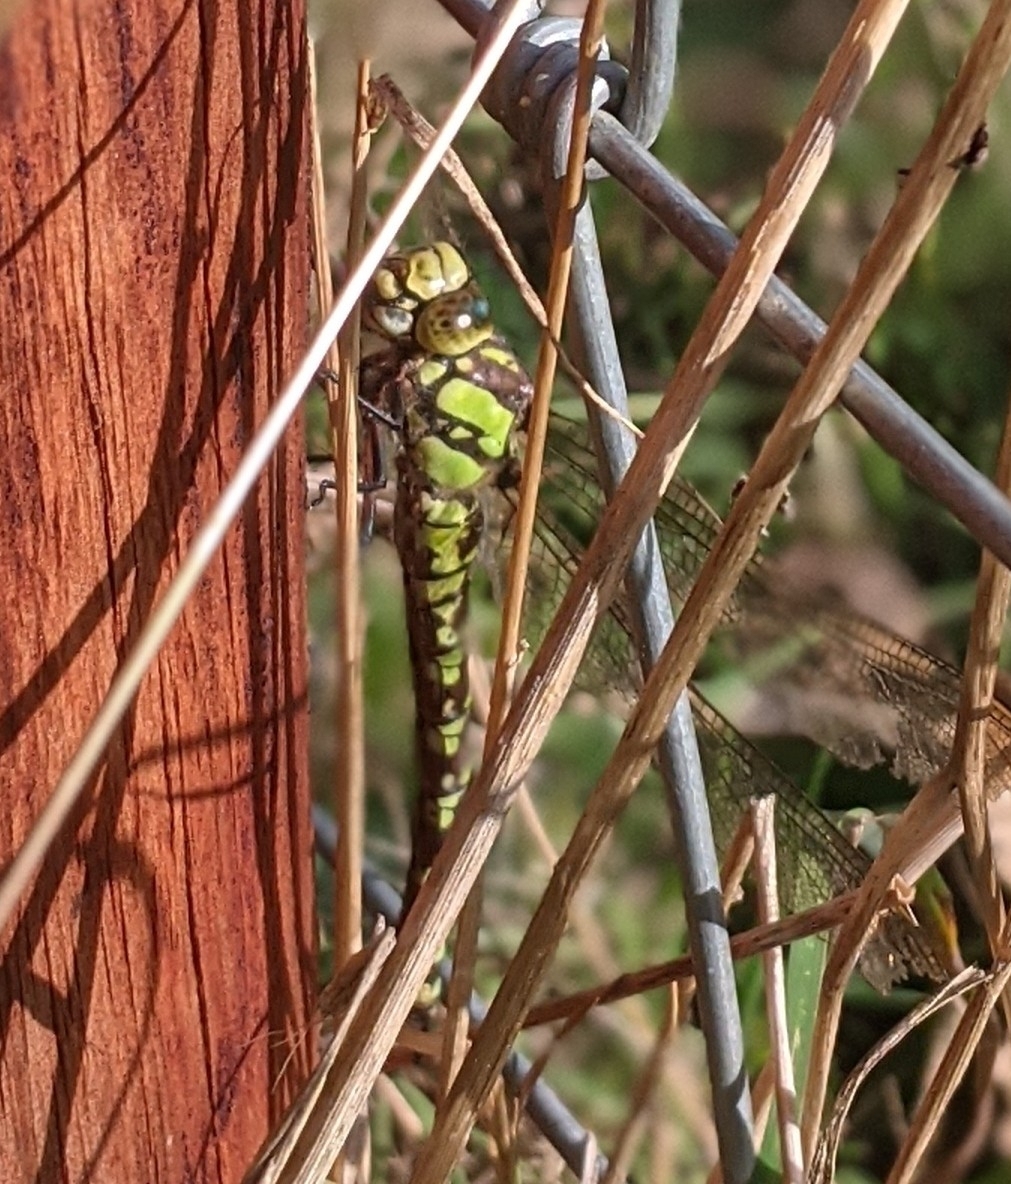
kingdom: Animalia
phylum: Arthropoda
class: Insecta
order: Odonata
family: Aeshnidae
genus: Aeshna
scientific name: Aeshna cyanea
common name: Southern hawker
